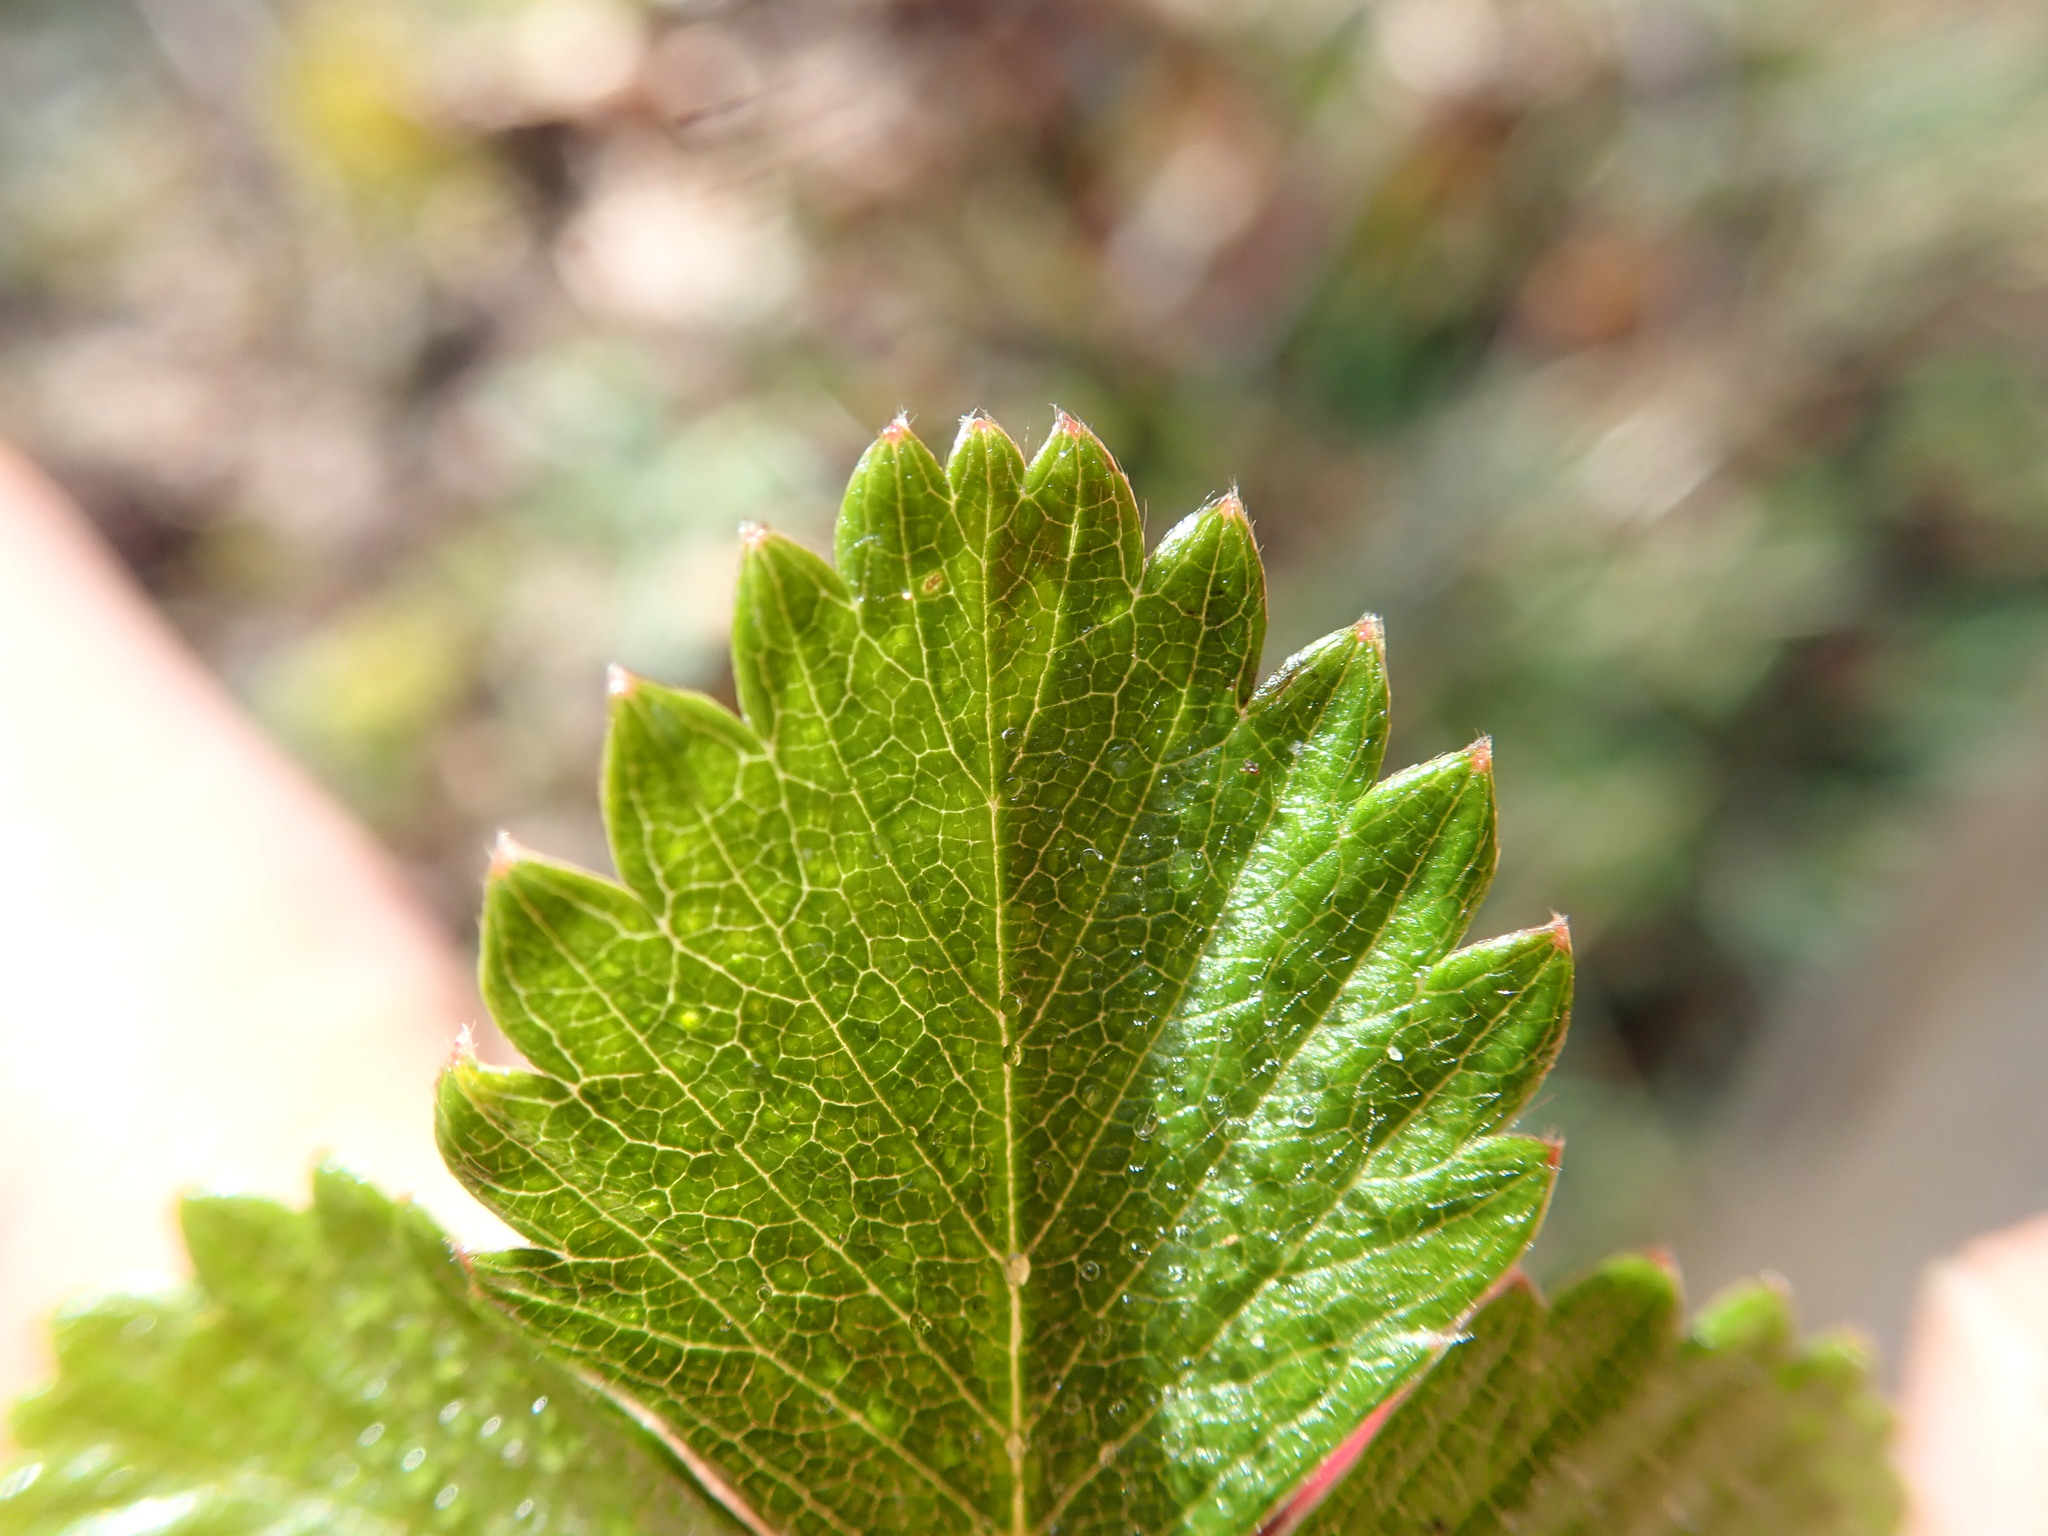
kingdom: Plantae
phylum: Tracheophyta
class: Magnoliopsida
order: Rosales
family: Rosaceae
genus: Potentilla
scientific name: Potentilla sterilis
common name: Barren strawberry
